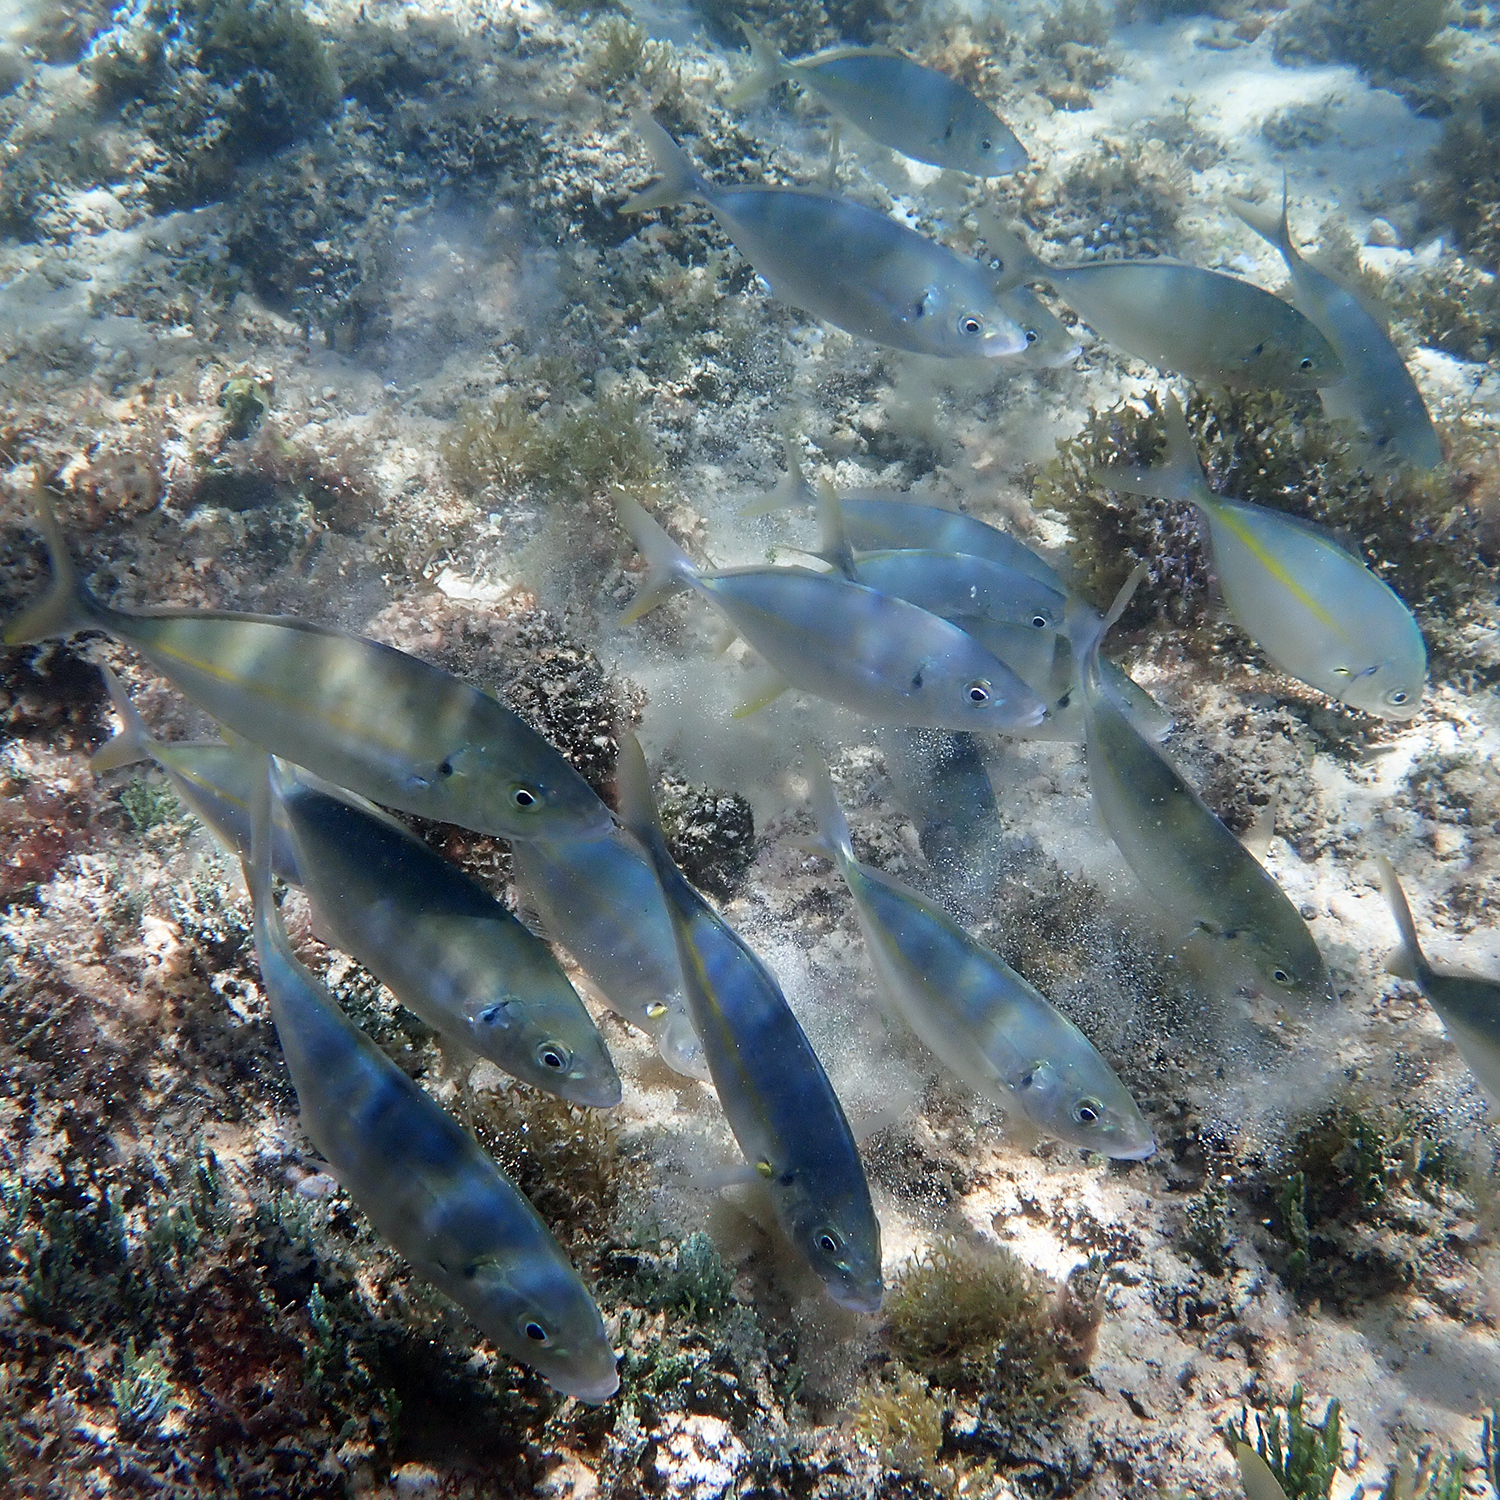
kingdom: Animalia
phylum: Chordata
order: Perciformes
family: Carangidae
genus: Pseudocaranx
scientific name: Pseudocaranx dentex
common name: White trevally
